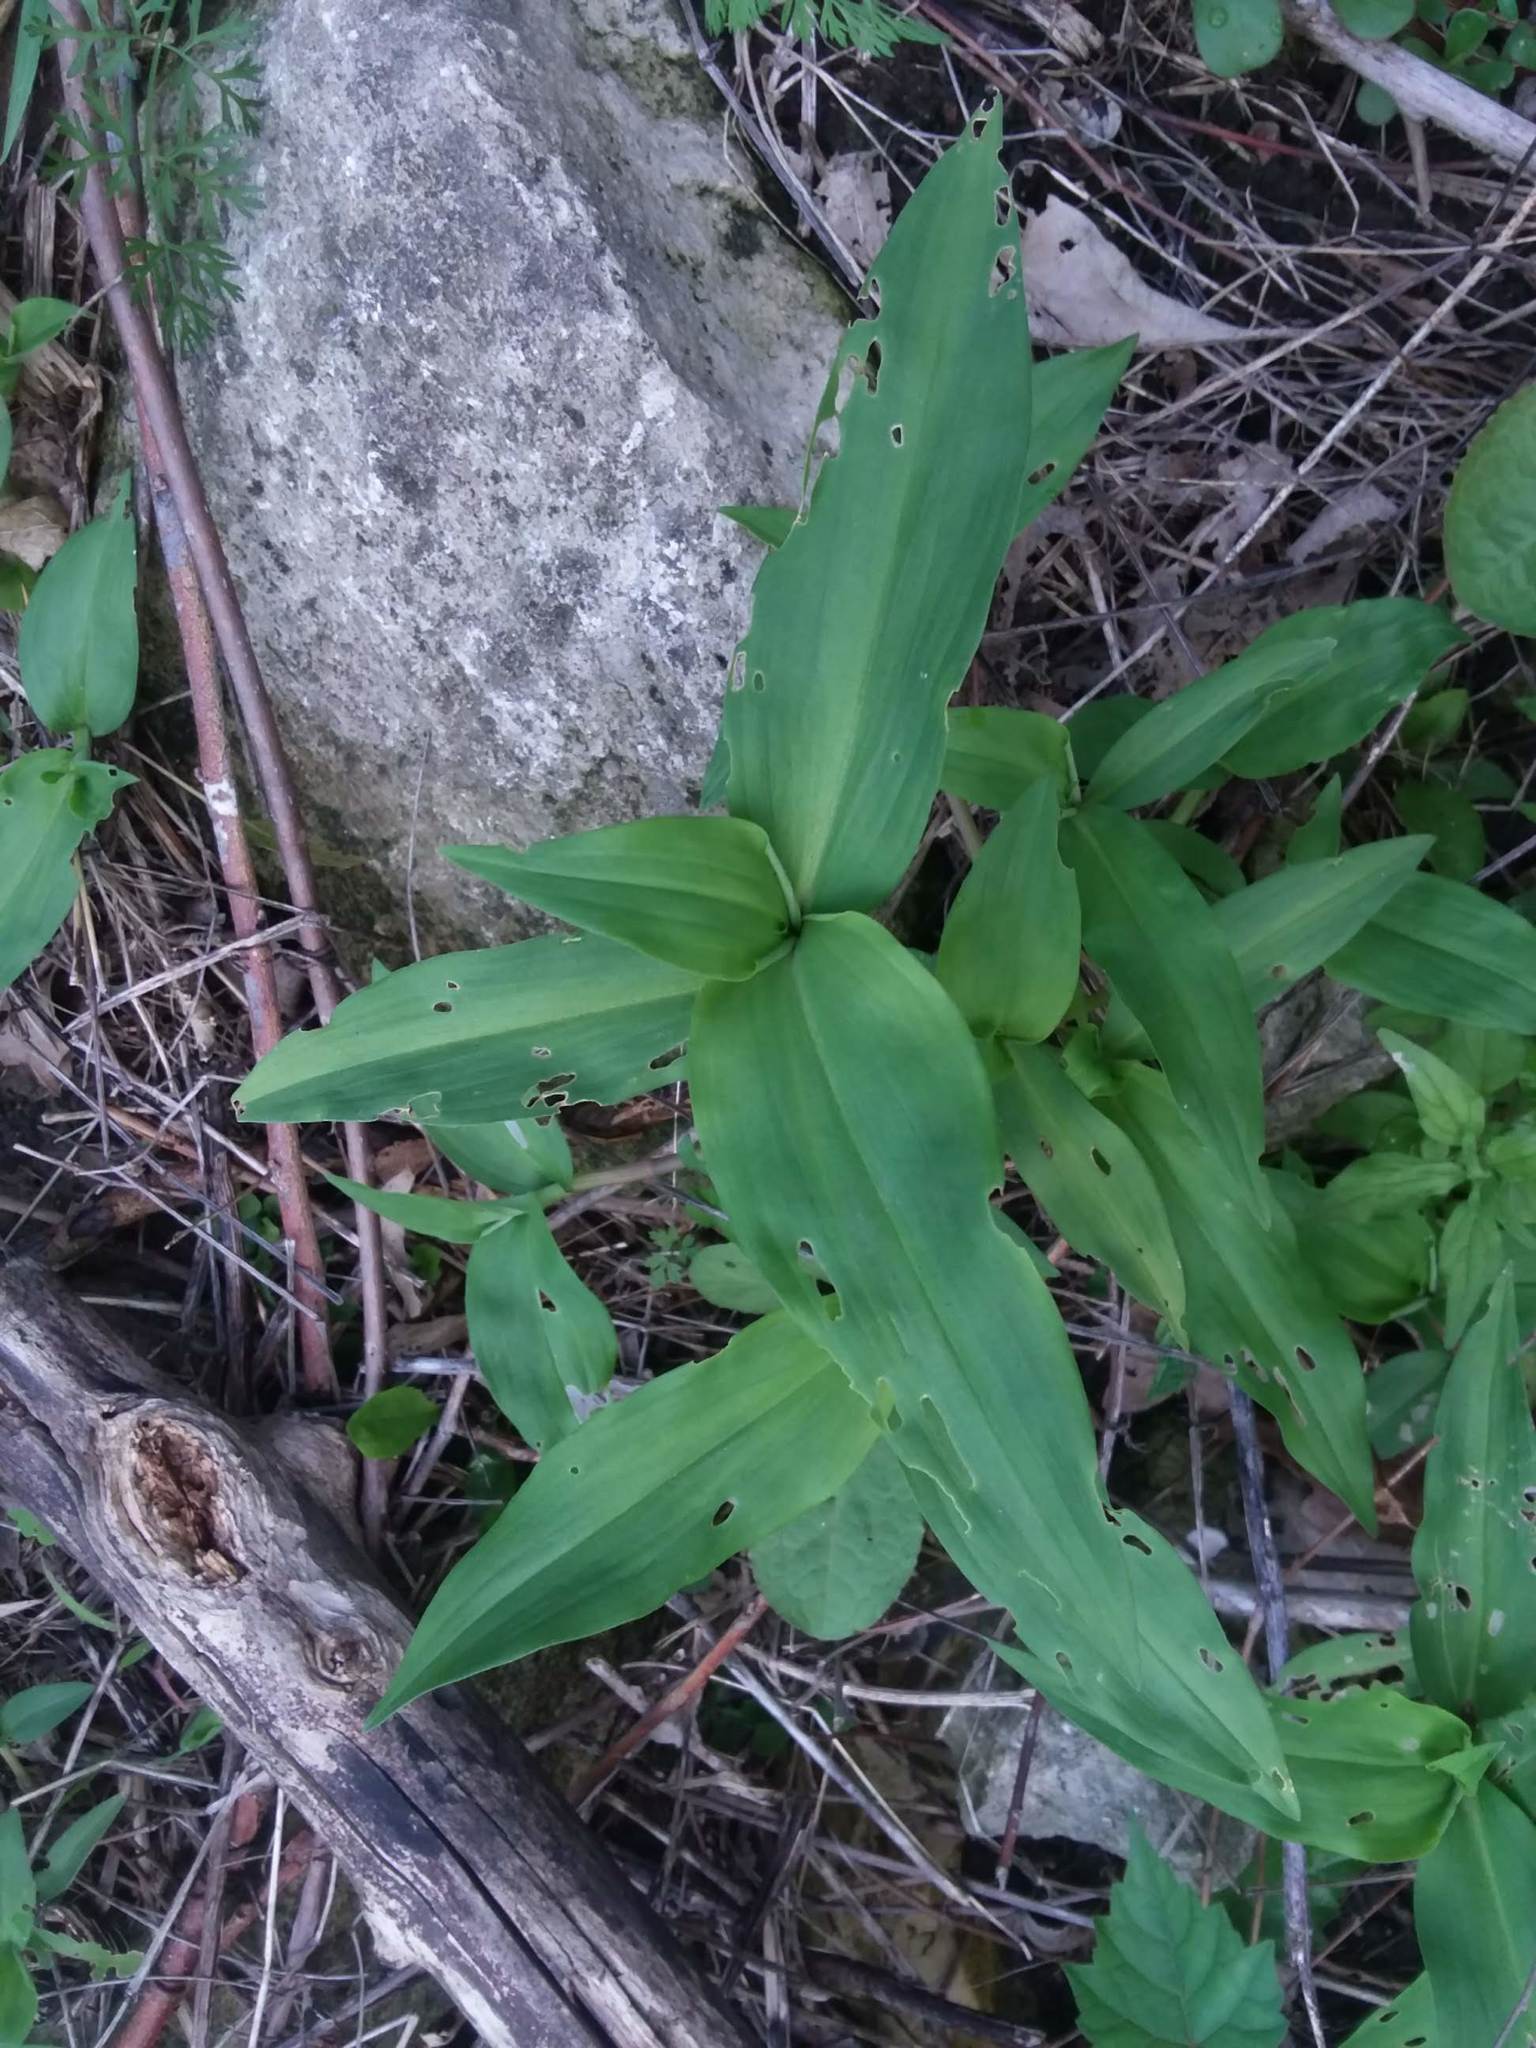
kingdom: Plantae
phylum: Tracheophyta
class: Liliopsida
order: Commelinales
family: Commelinaceae
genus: Commelina
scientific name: Commelina communis
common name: Asiatic dayflower
